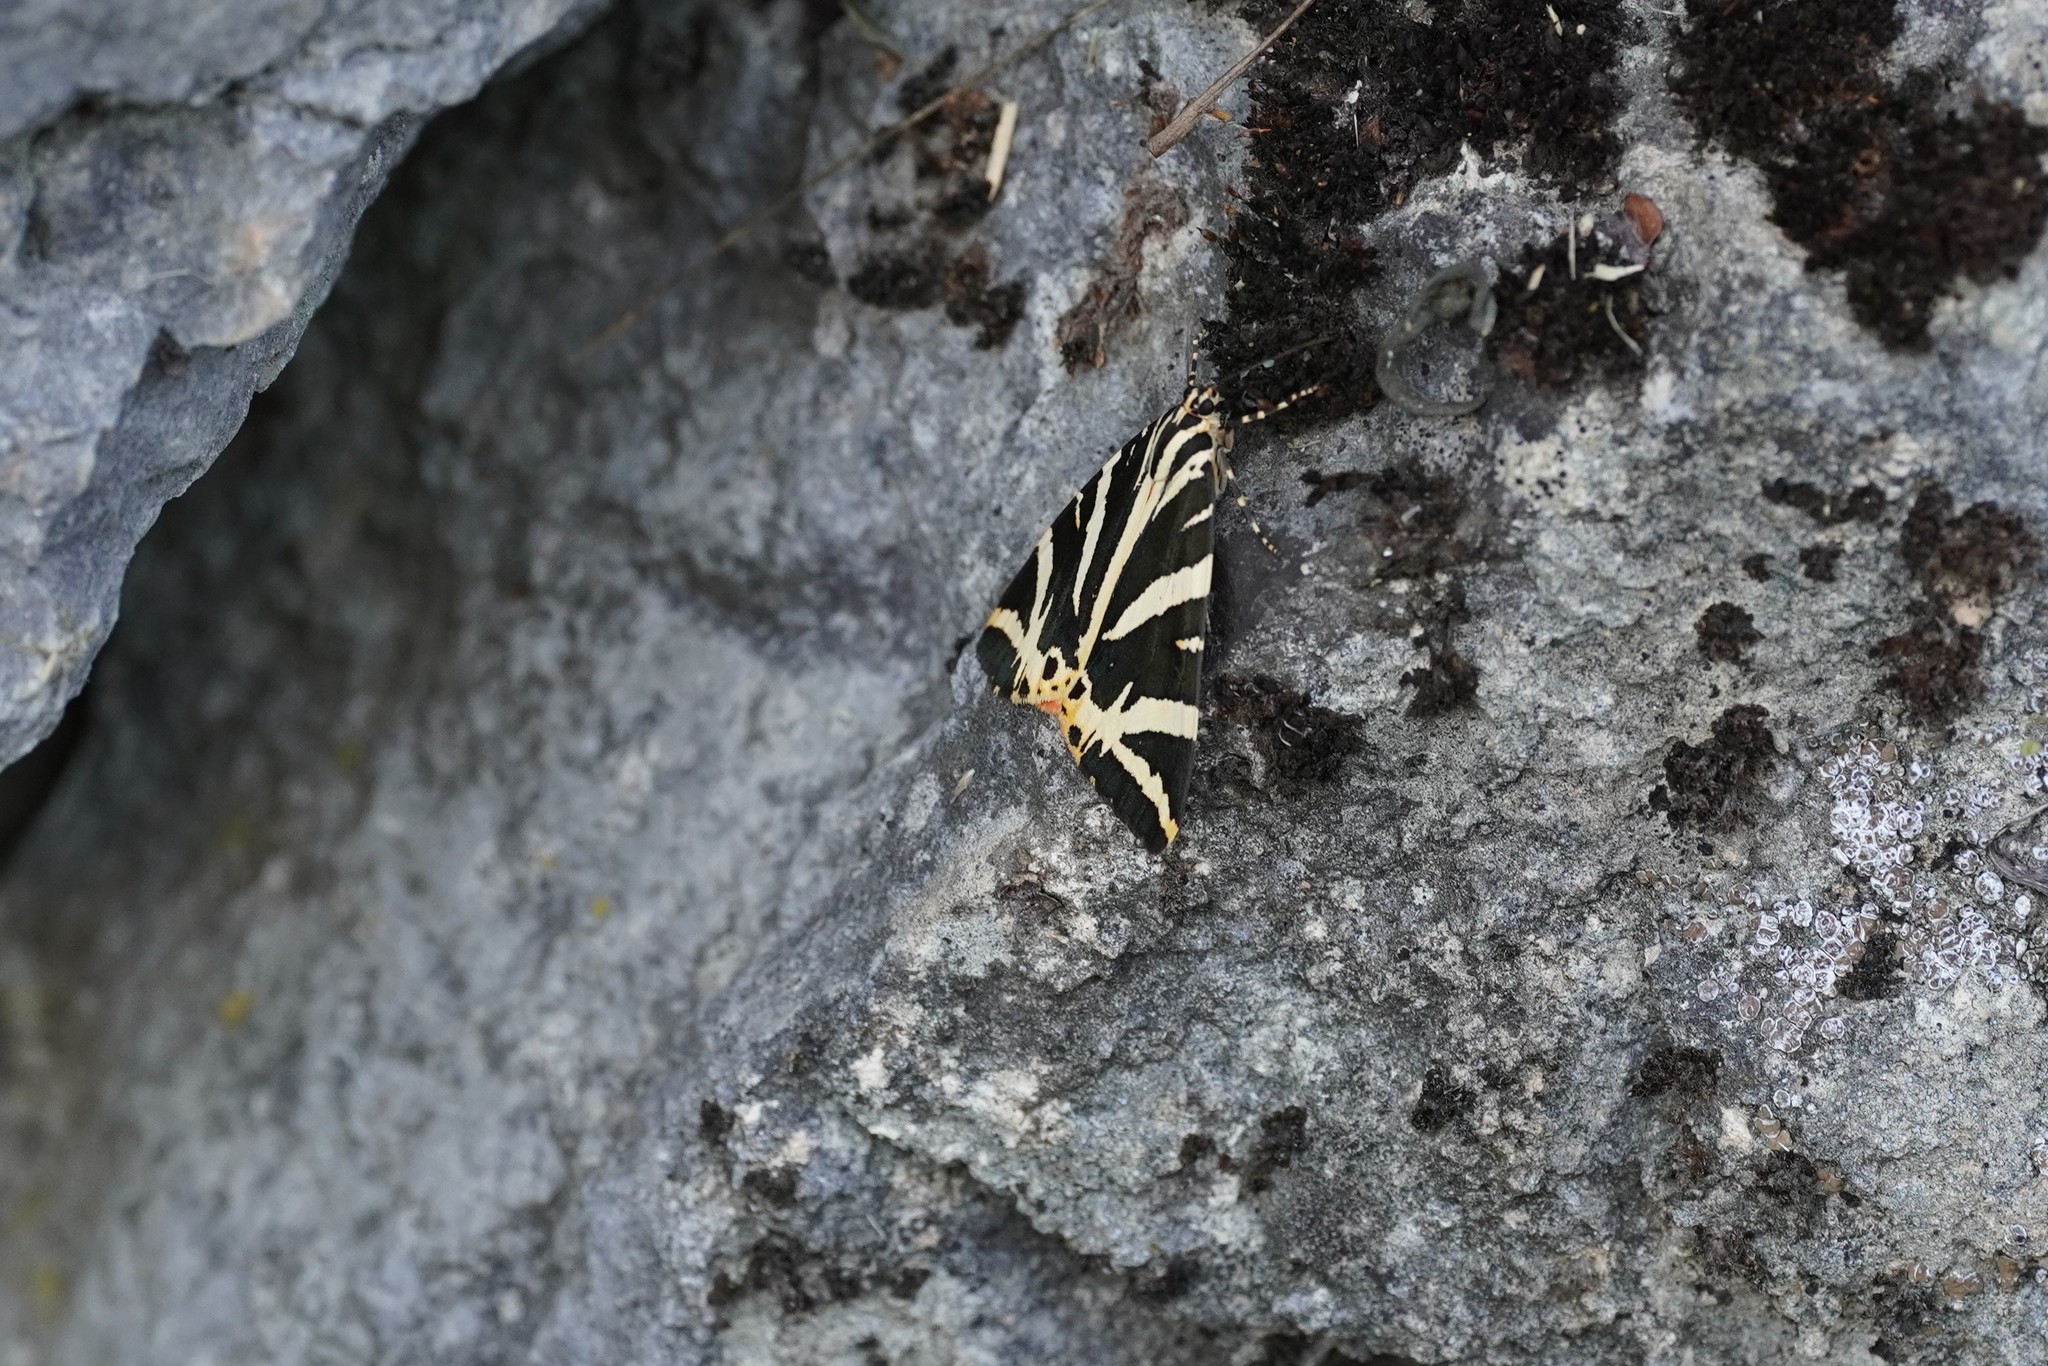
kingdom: Animalia
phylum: Arthropoda
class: Insecta
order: Lepidoptera
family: Erebidae
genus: Euplagia
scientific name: Euplagia quadripunctaria
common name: Jersey tiger
